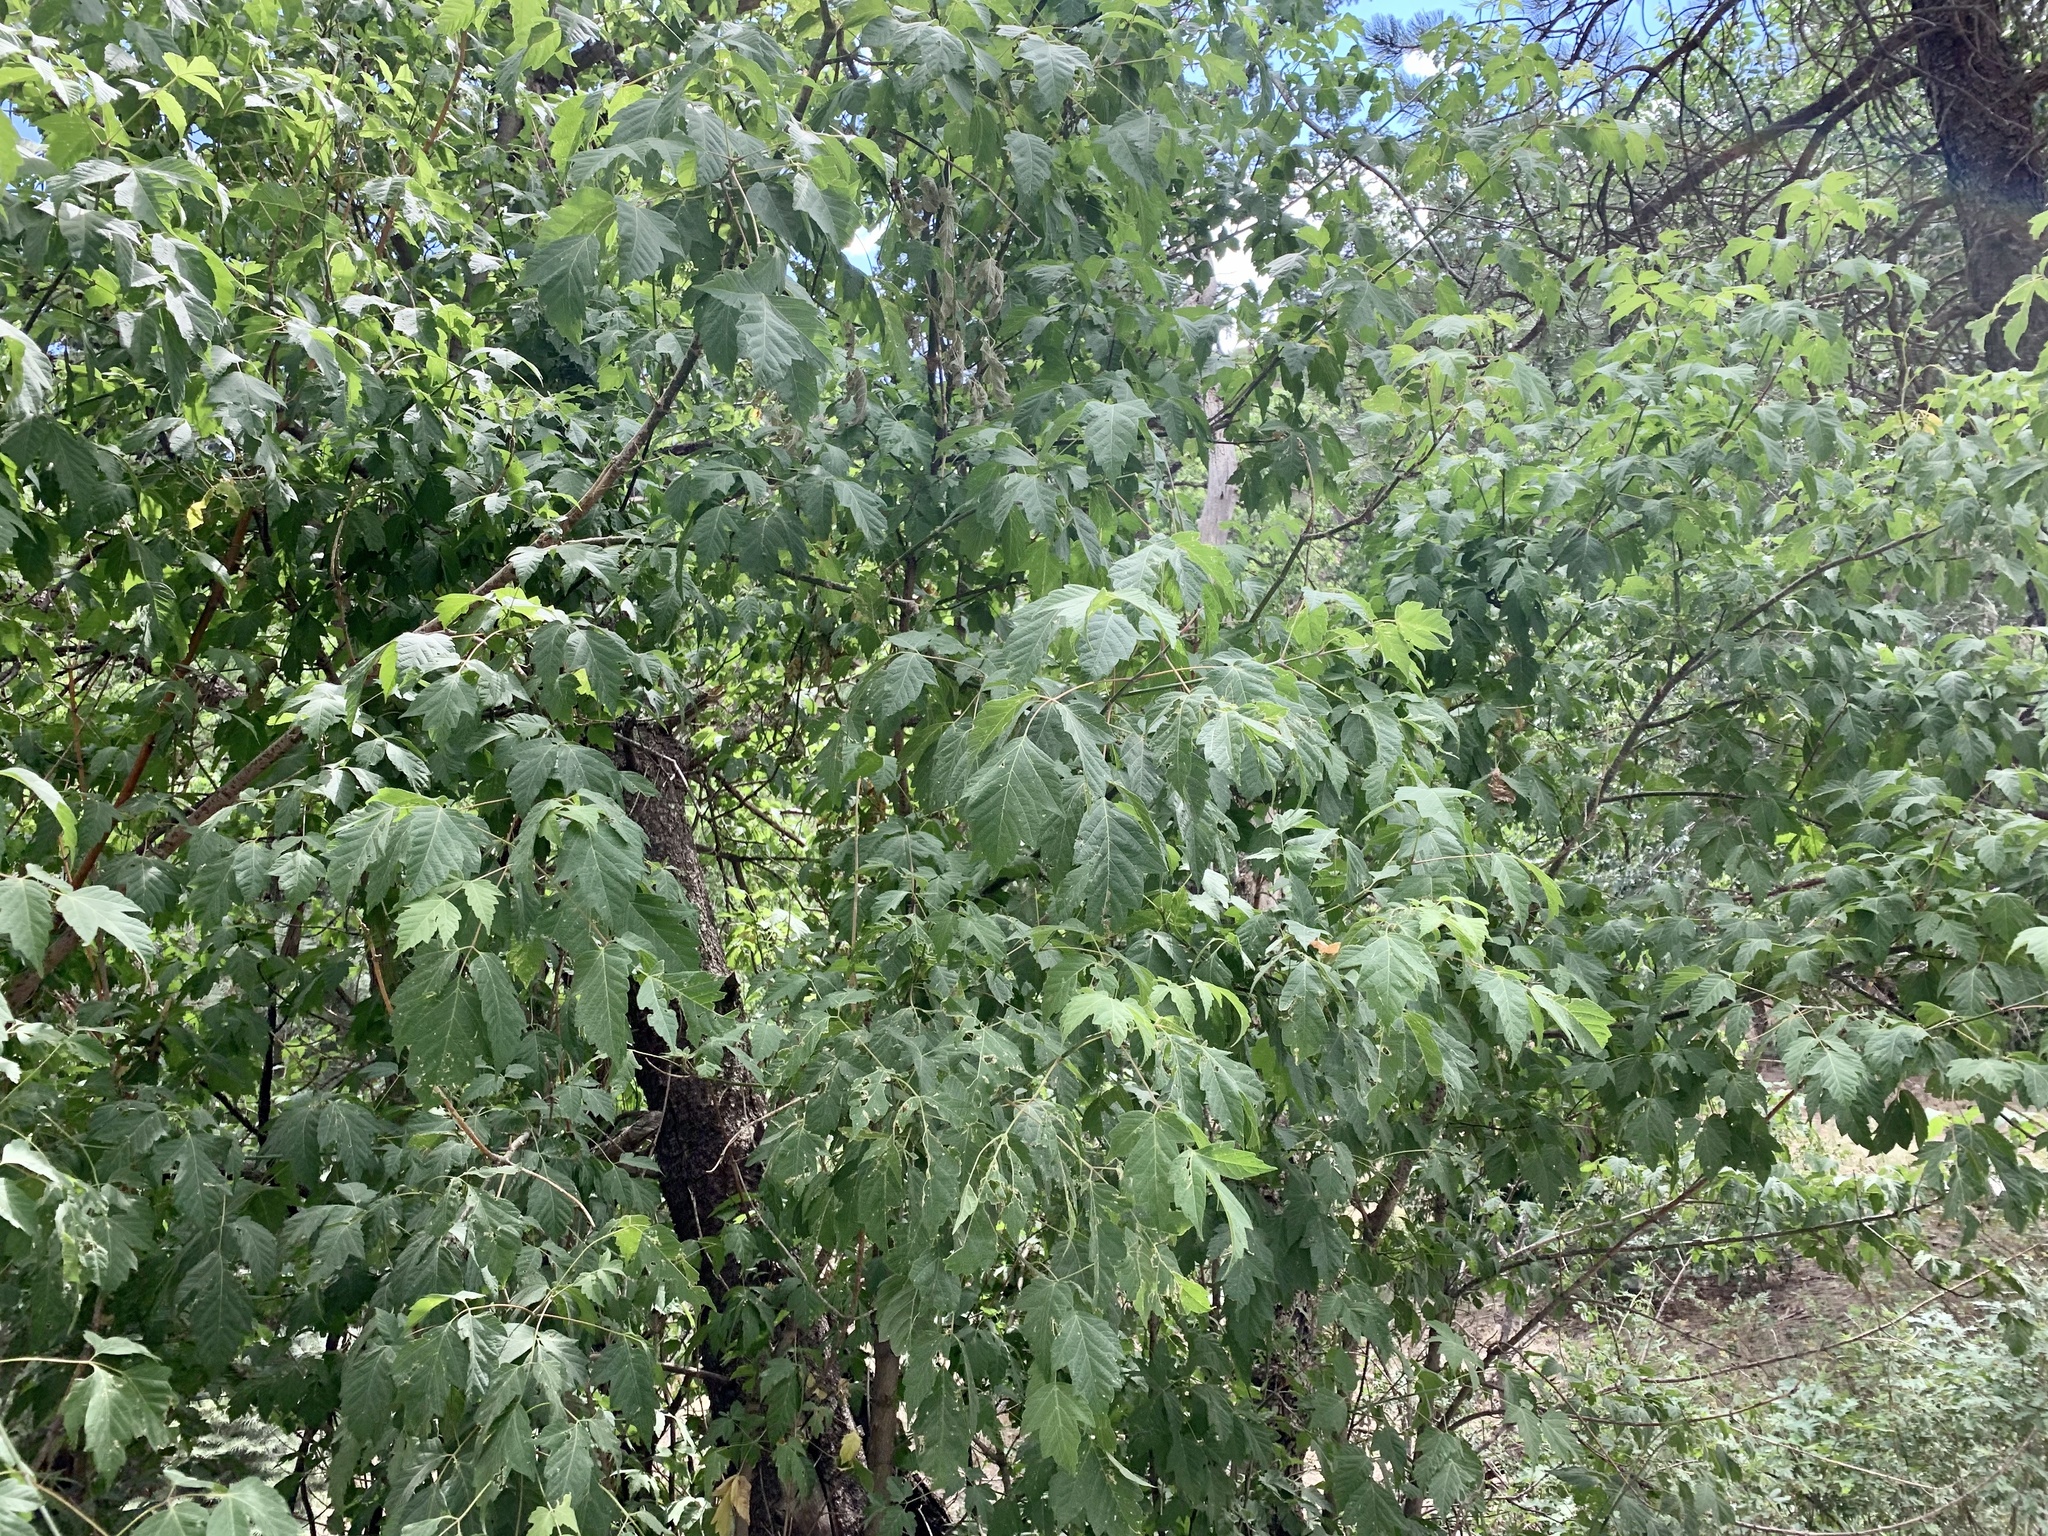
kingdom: Plantae
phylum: Tracheophyta
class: Magnoliopsida
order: Sapindales
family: Sapindaceae
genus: Acer
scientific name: Acer negundo
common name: Ashleaf maple
